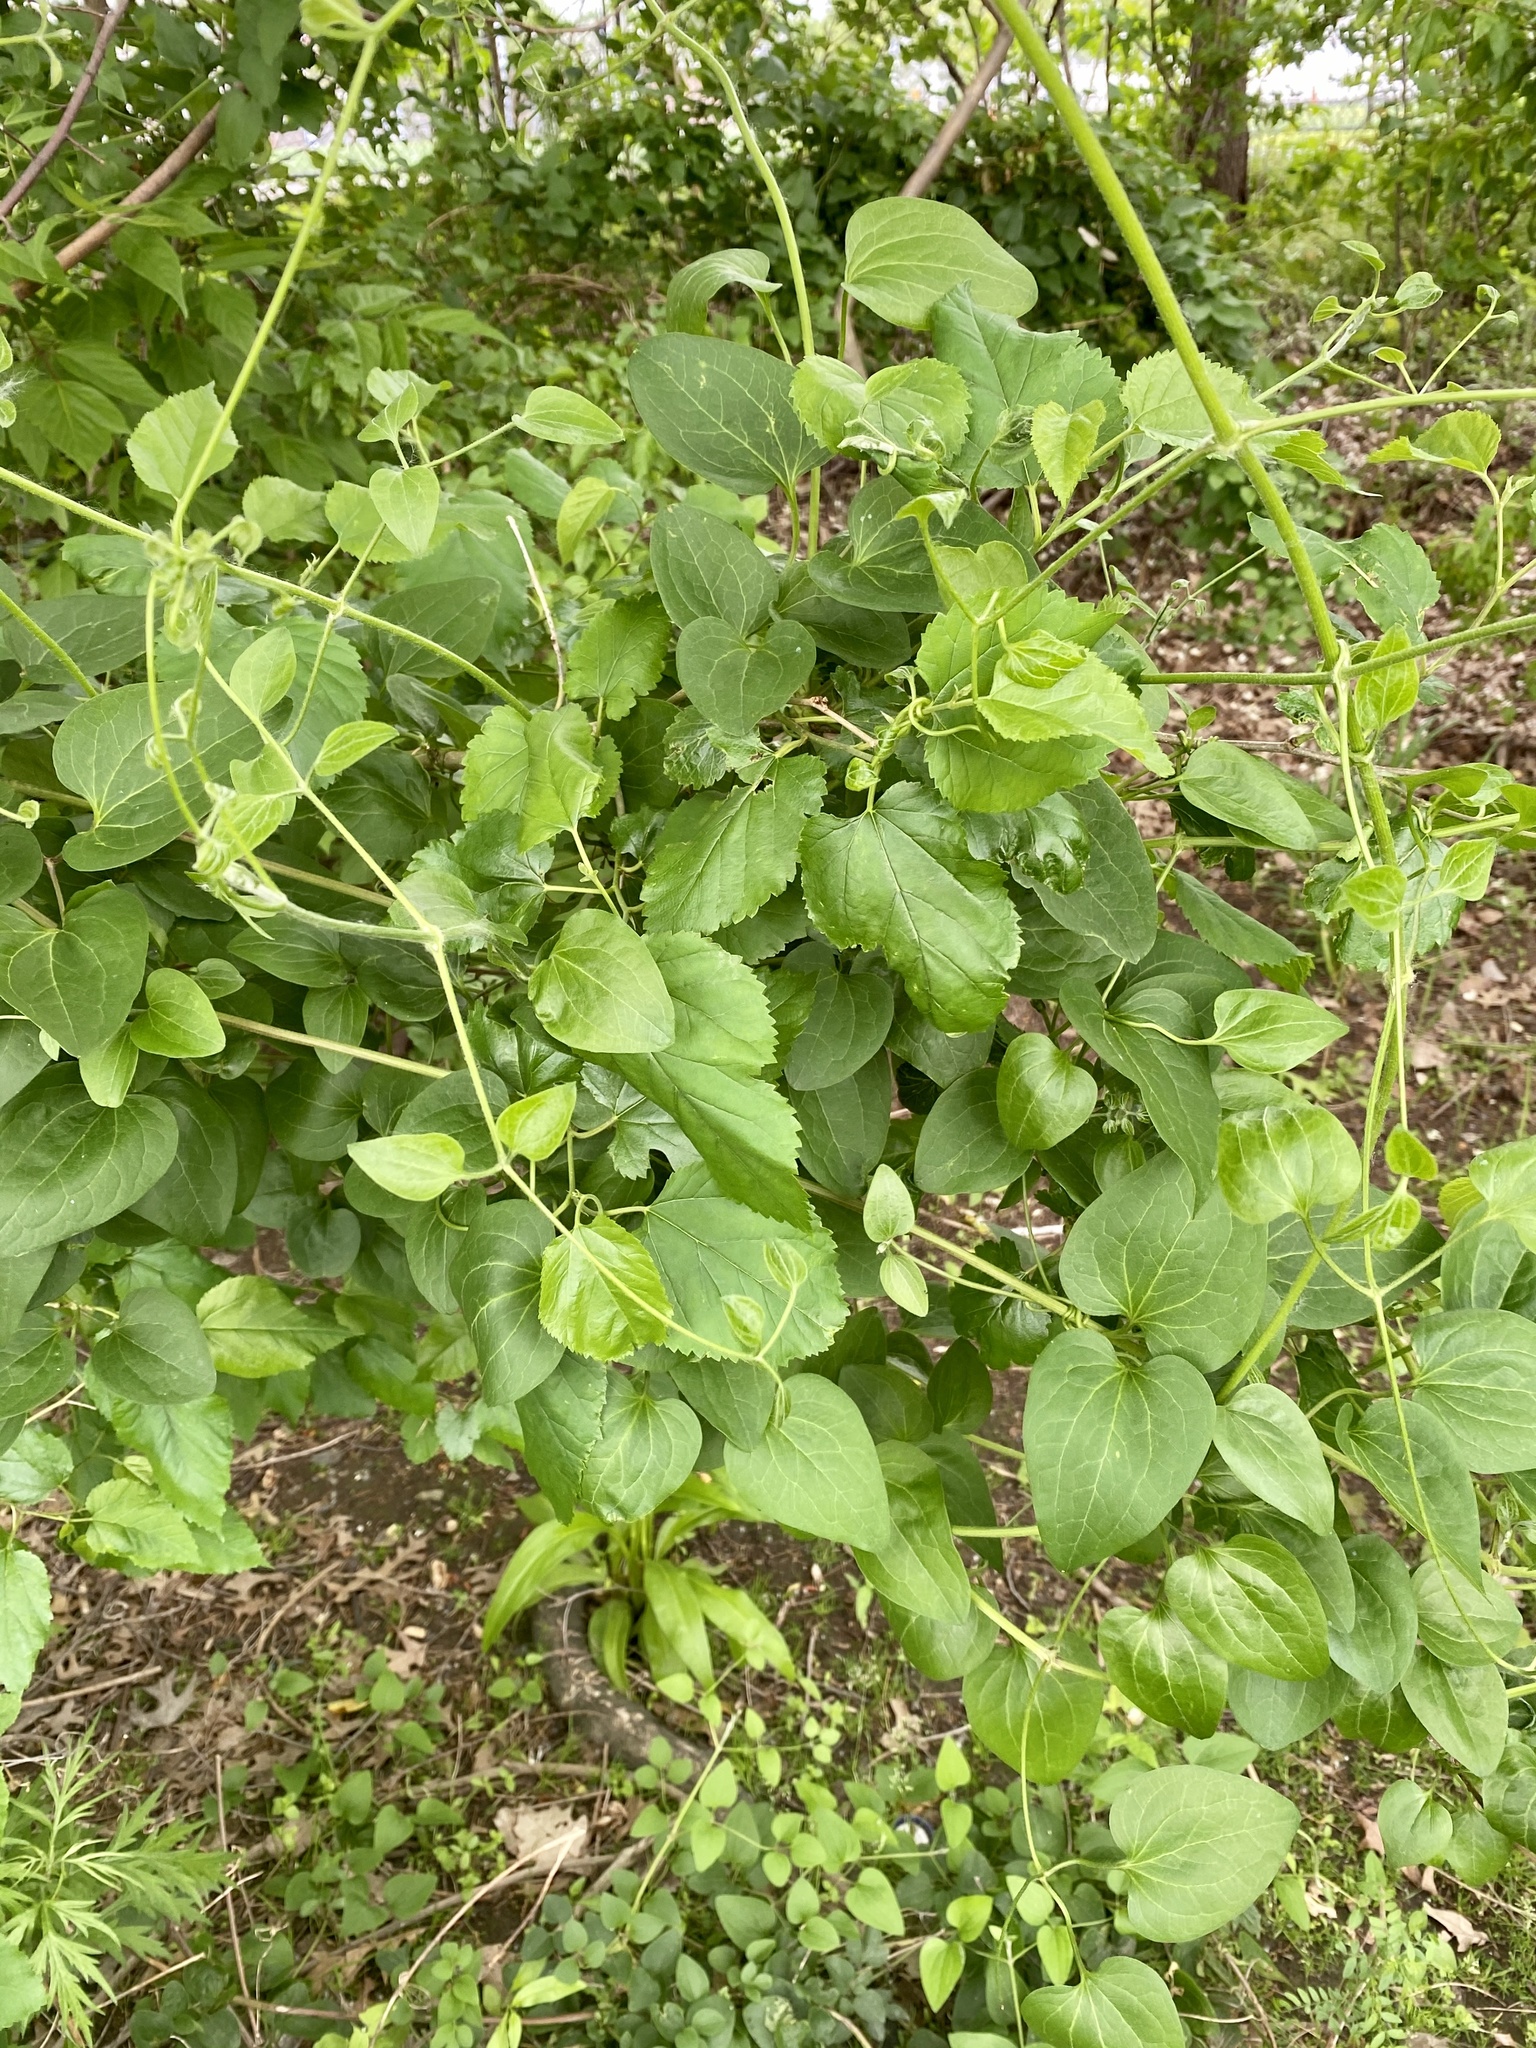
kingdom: Plantae
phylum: Tracheophyta
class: Magnoliopsida
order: Ranunculales
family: Ranunculaceae
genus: Clematis
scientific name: Clematis terniflora
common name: Sweet autumn clematis
